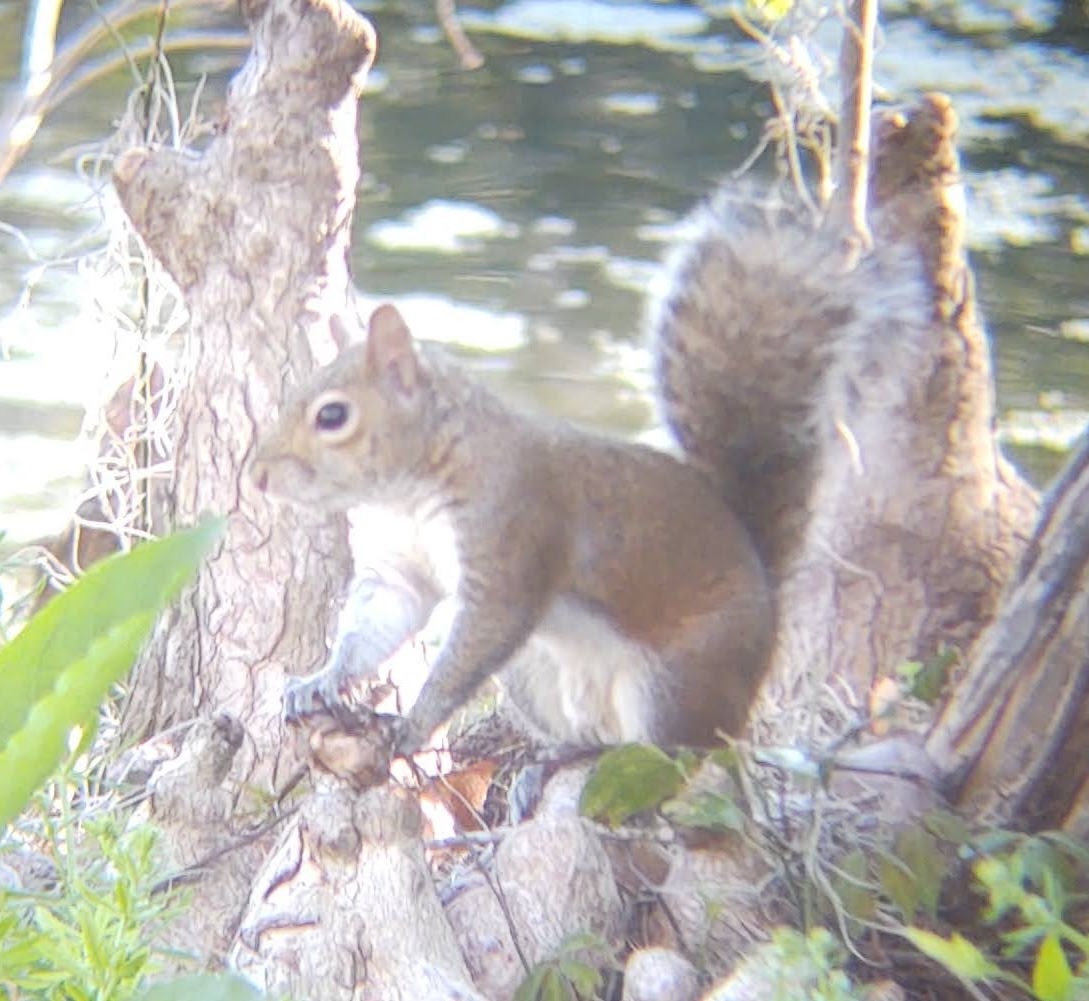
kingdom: Animalia
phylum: Chordata
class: Mammalia
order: Rodentia
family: Sciuridae
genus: Sciurus
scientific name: Sciurus carolinensis
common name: Eastern gray squirrel
